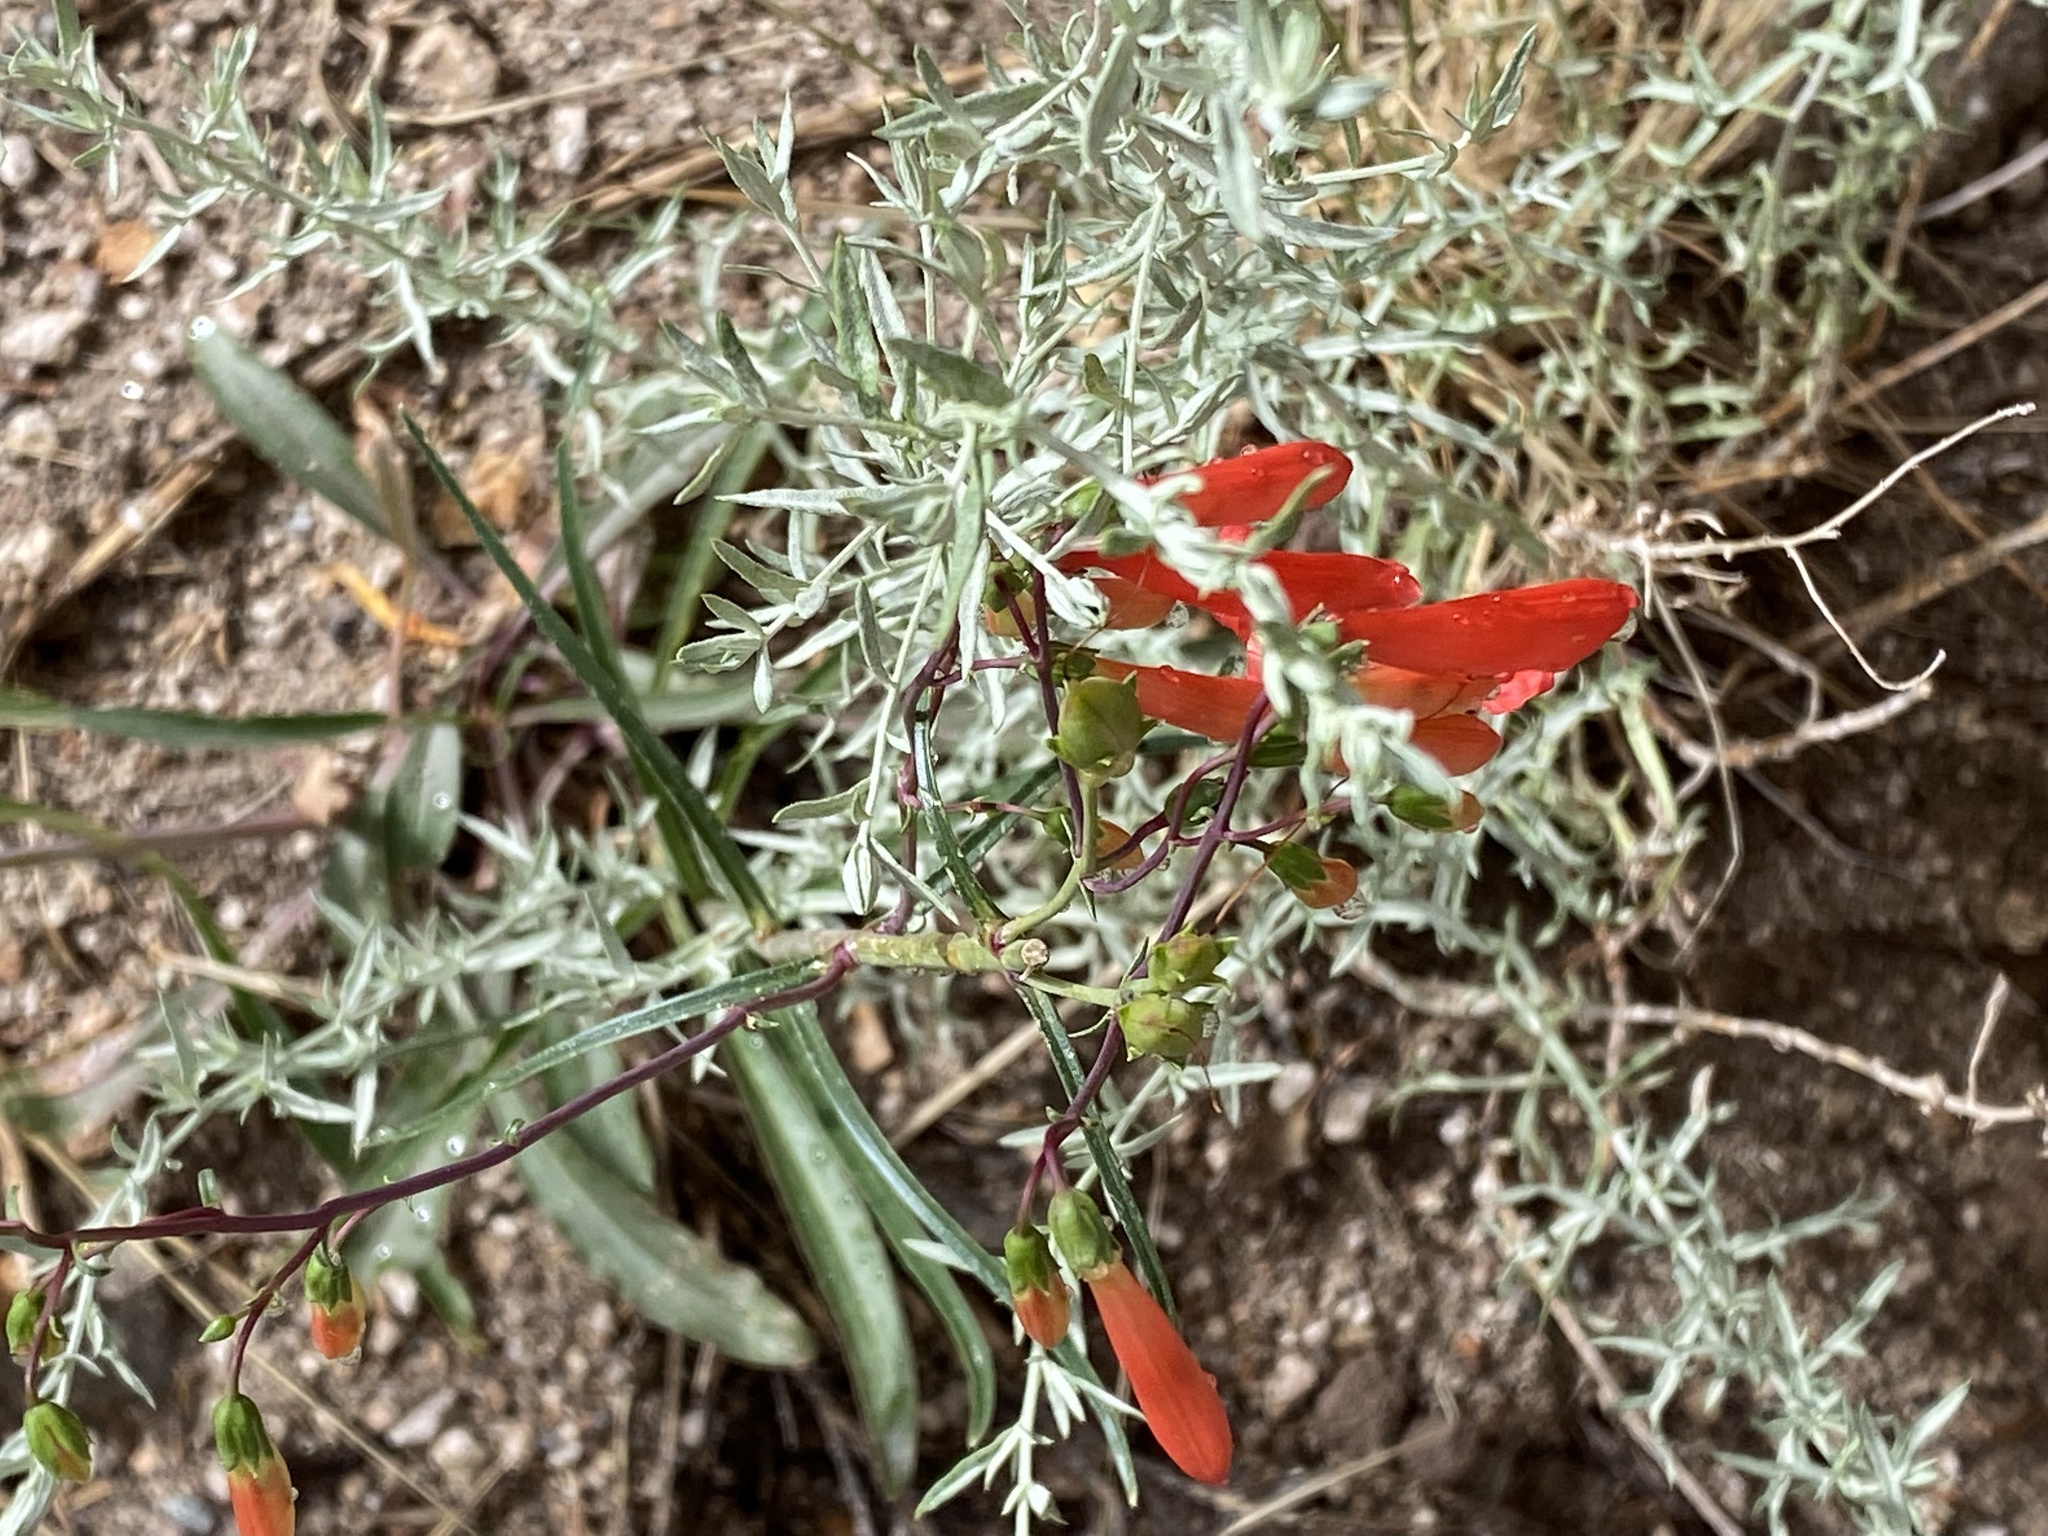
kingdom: Plantae
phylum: Tracheophyta
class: Magnoliopsida
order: Lamiales
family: Plantaginaceae
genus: Penstemon
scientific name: Penstemon barbatus
